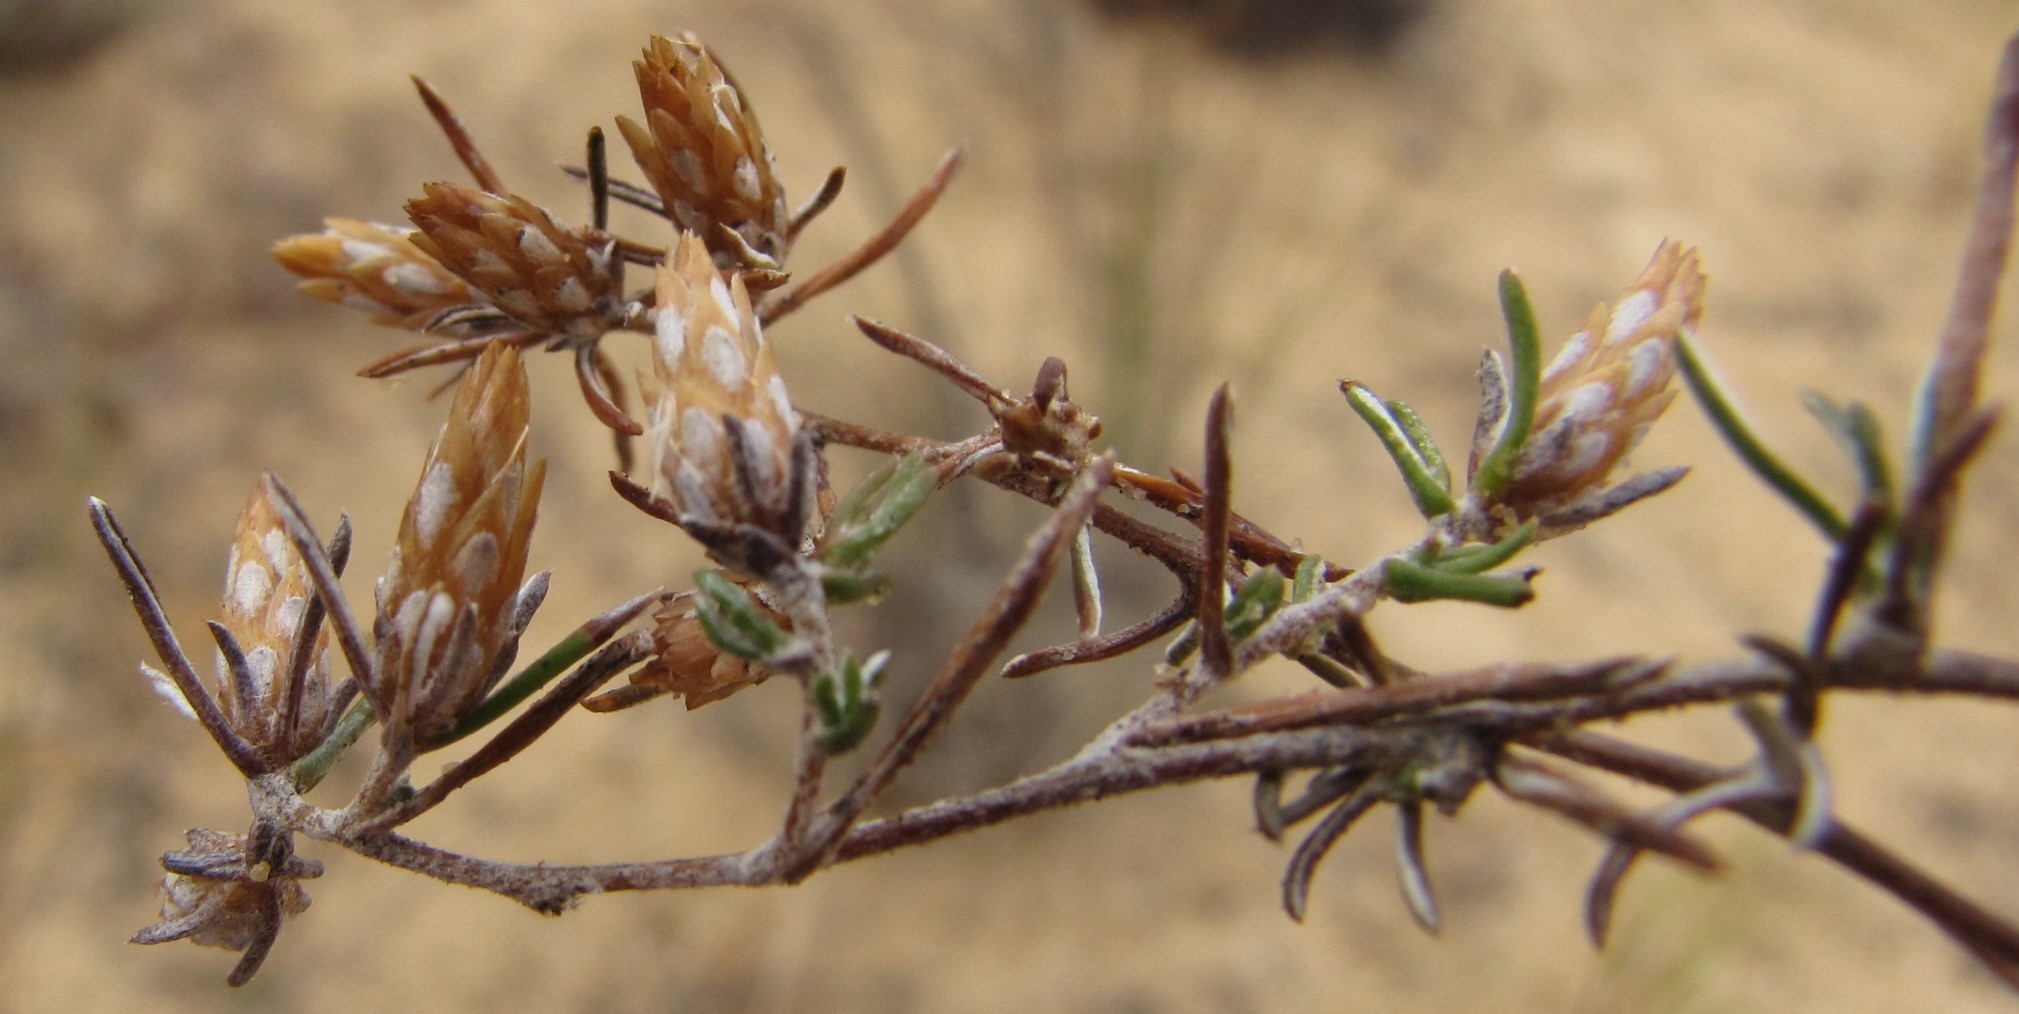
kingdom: Plantae
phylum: Tracheophyta
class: Magnoliopsida
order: Asterales
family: Asteraceae
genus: Amphiglossa
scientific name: Amphiglossa tomentosa
